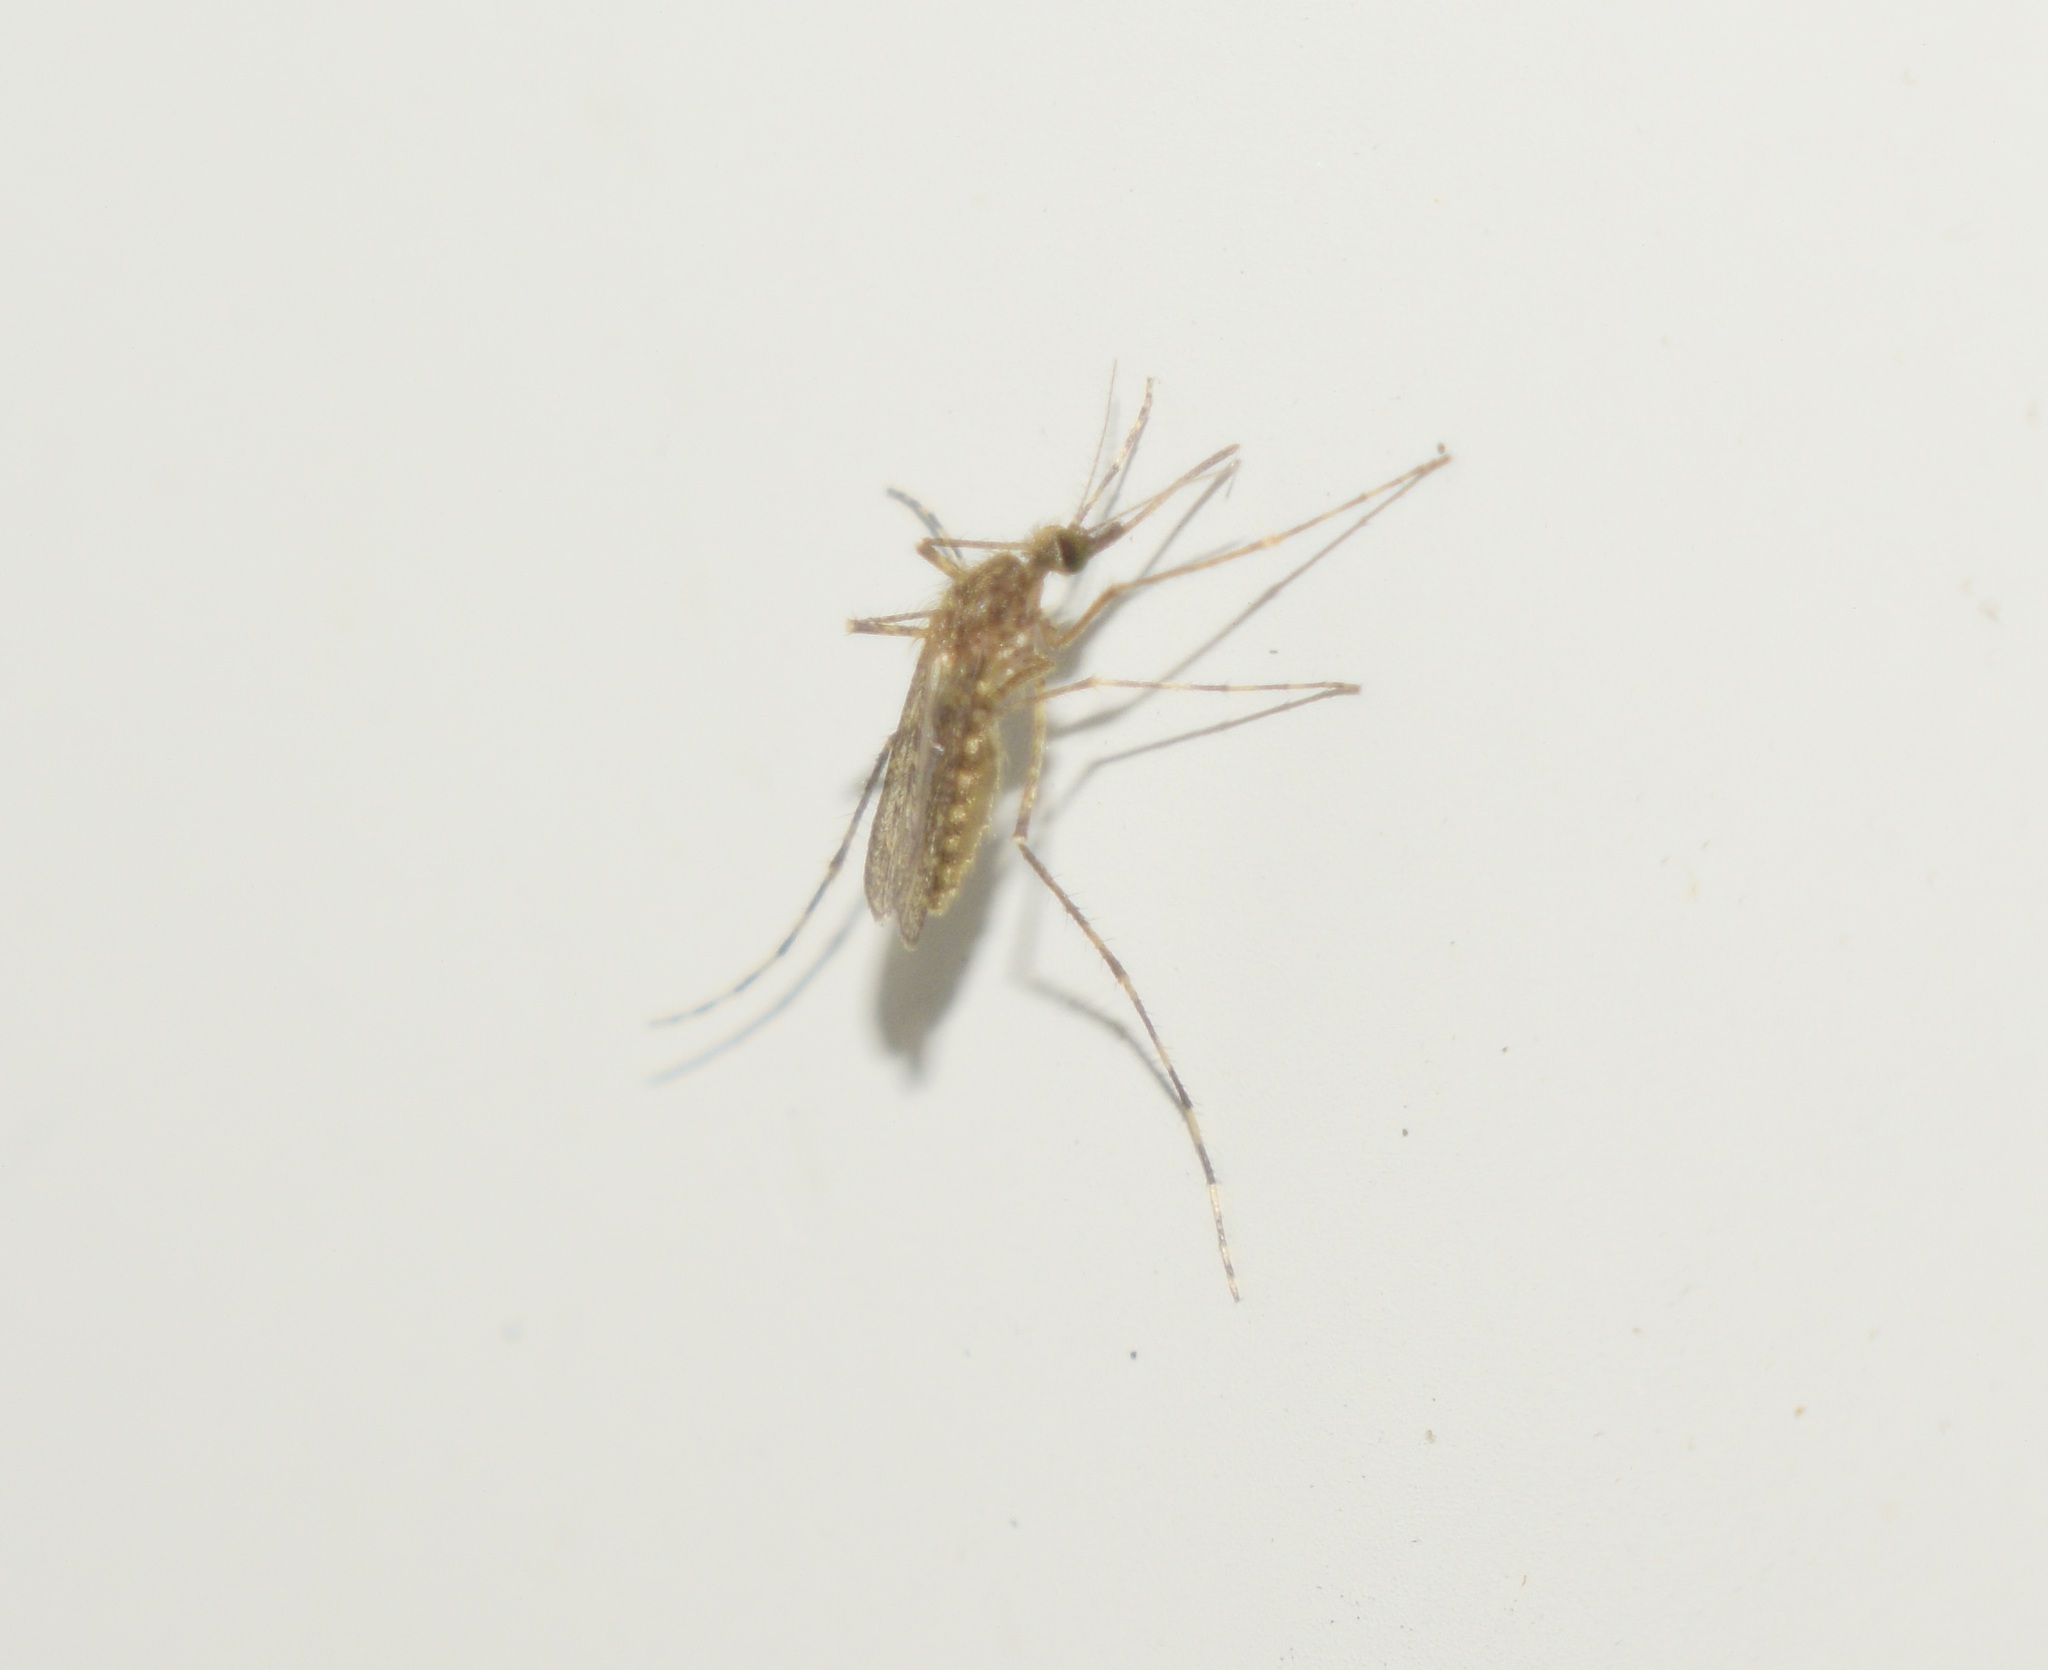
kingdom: Animalia
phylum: Arthropoda
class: Insecta
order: Diptera
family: Culicidae
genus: Coquillettidia
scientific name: Coquillettidia perturbans
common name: Cattail mosquito
